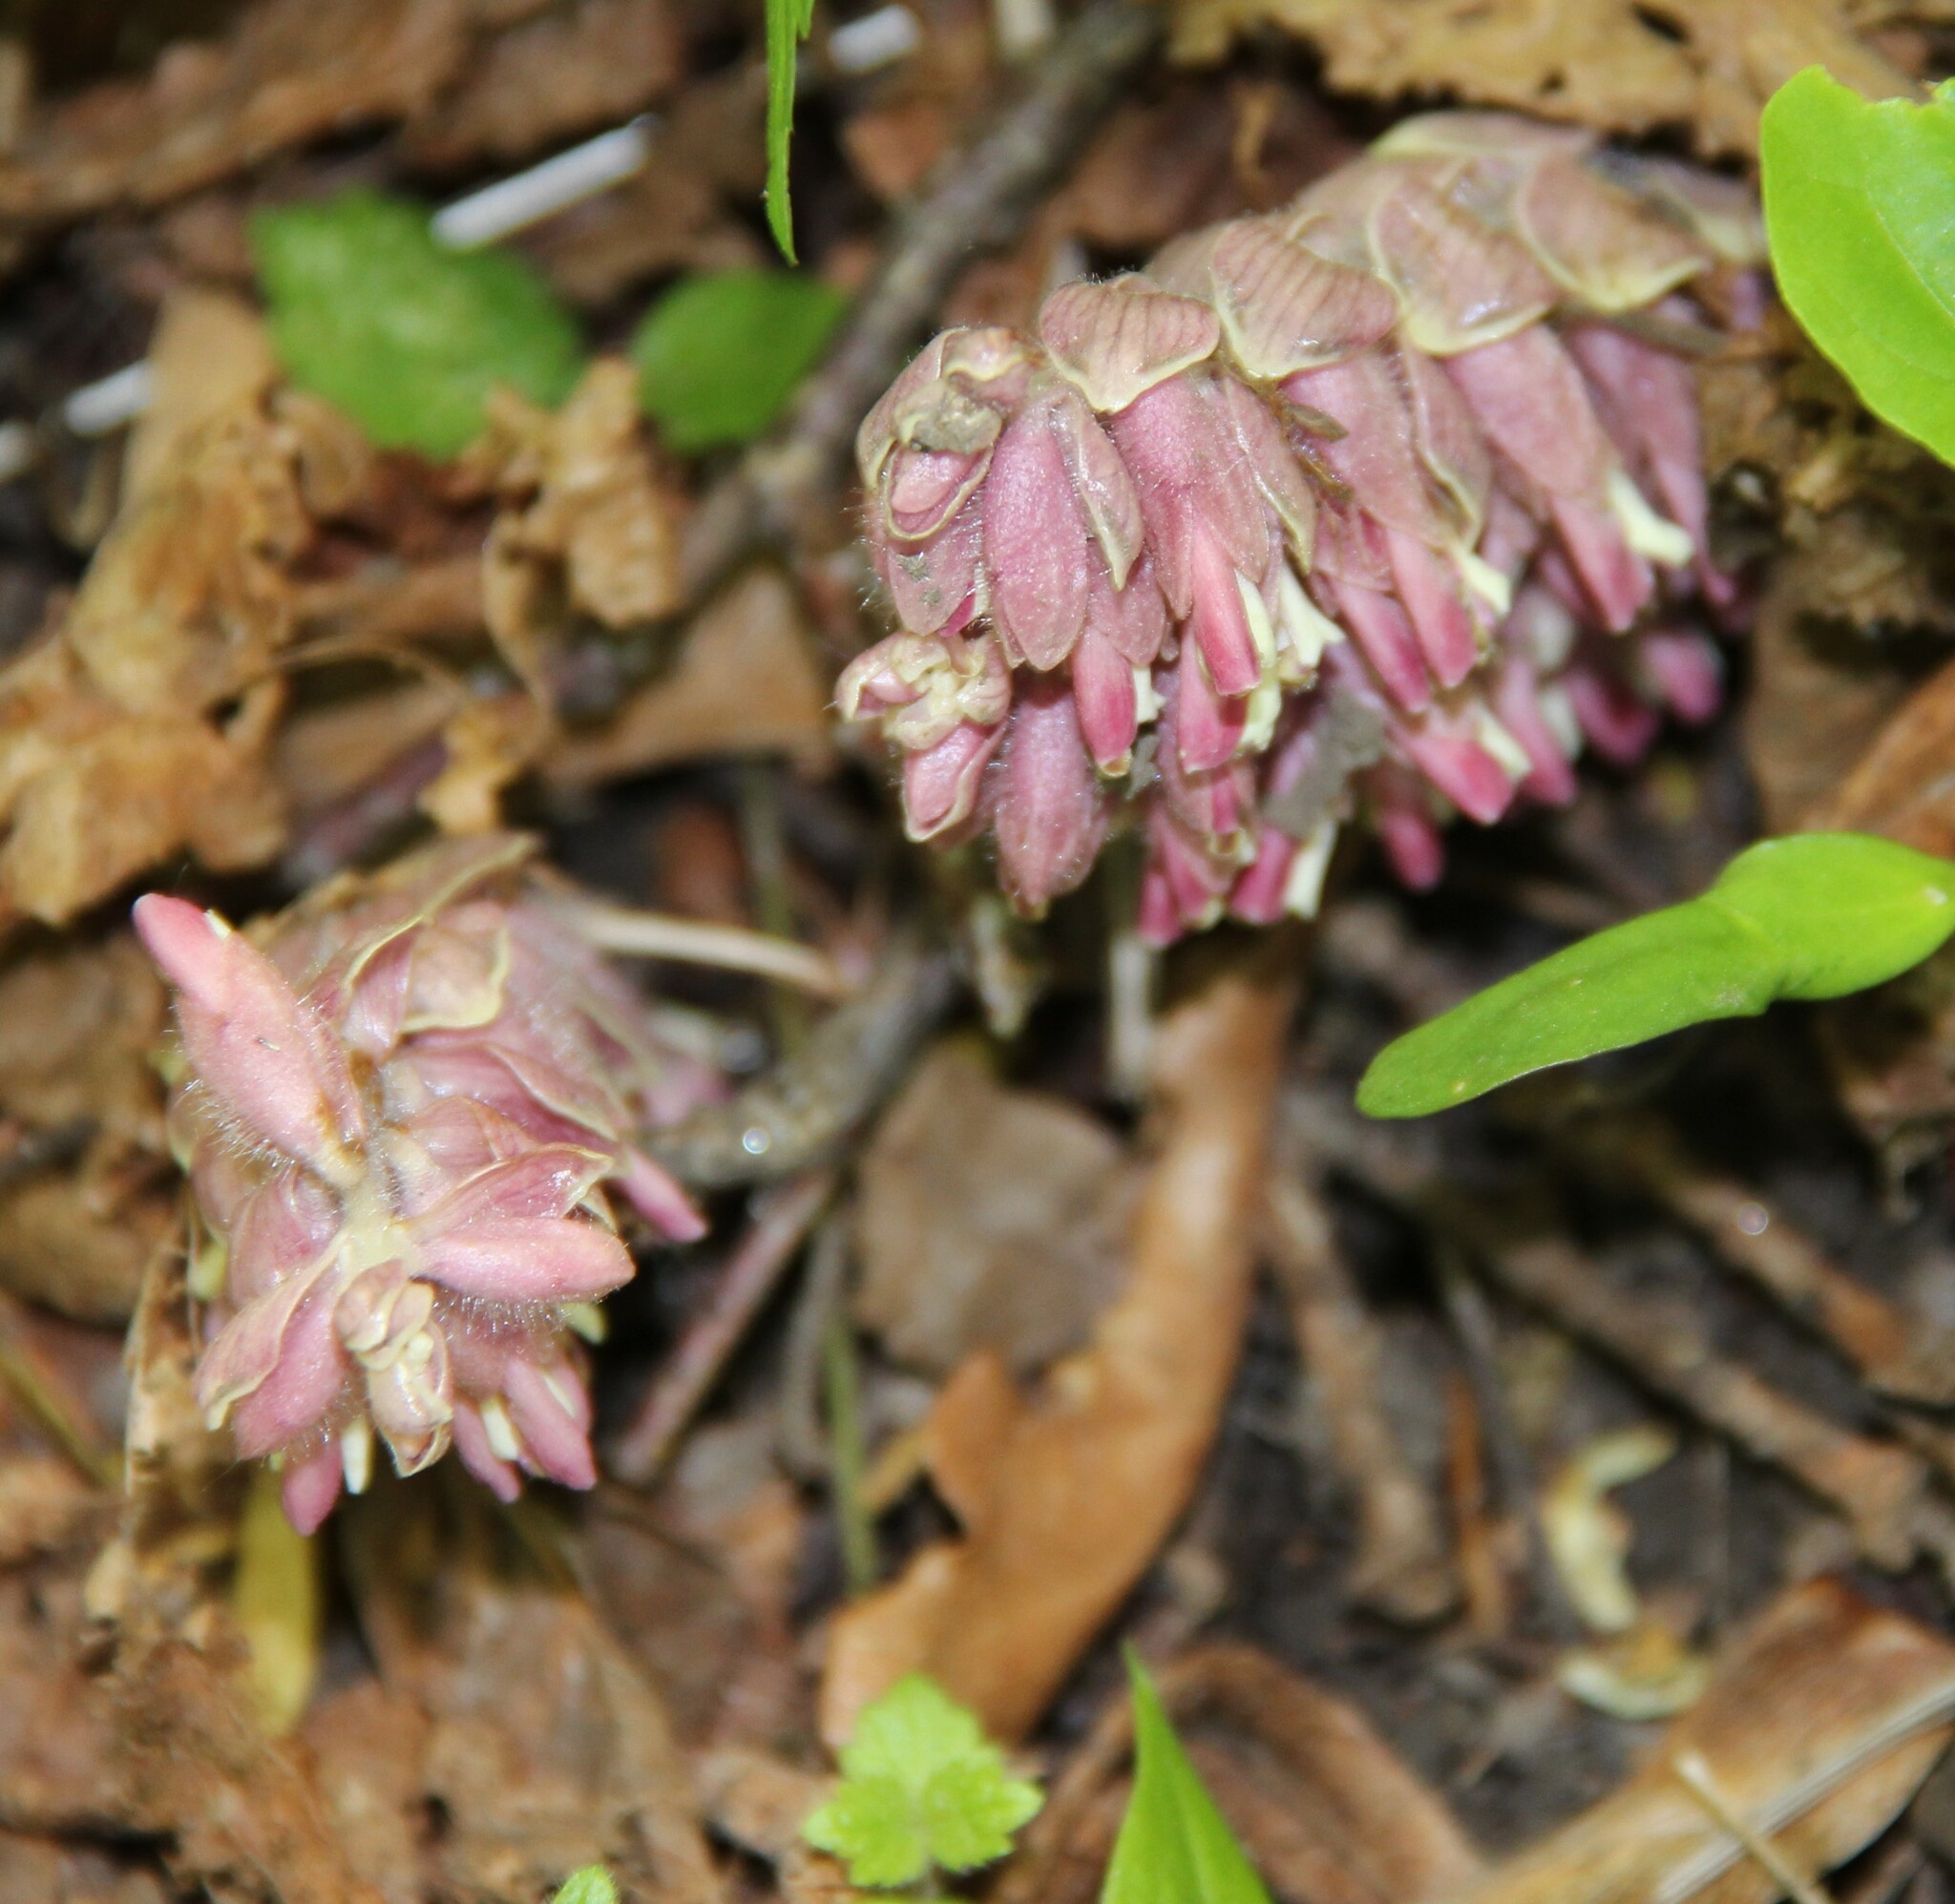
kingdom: Plantae
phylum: Tracheophyta
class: Magnoliopsida
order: Lamiales
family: Orobanchaceae
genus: Lathraea
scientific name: Lathraea squamaria
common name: Toothwort
